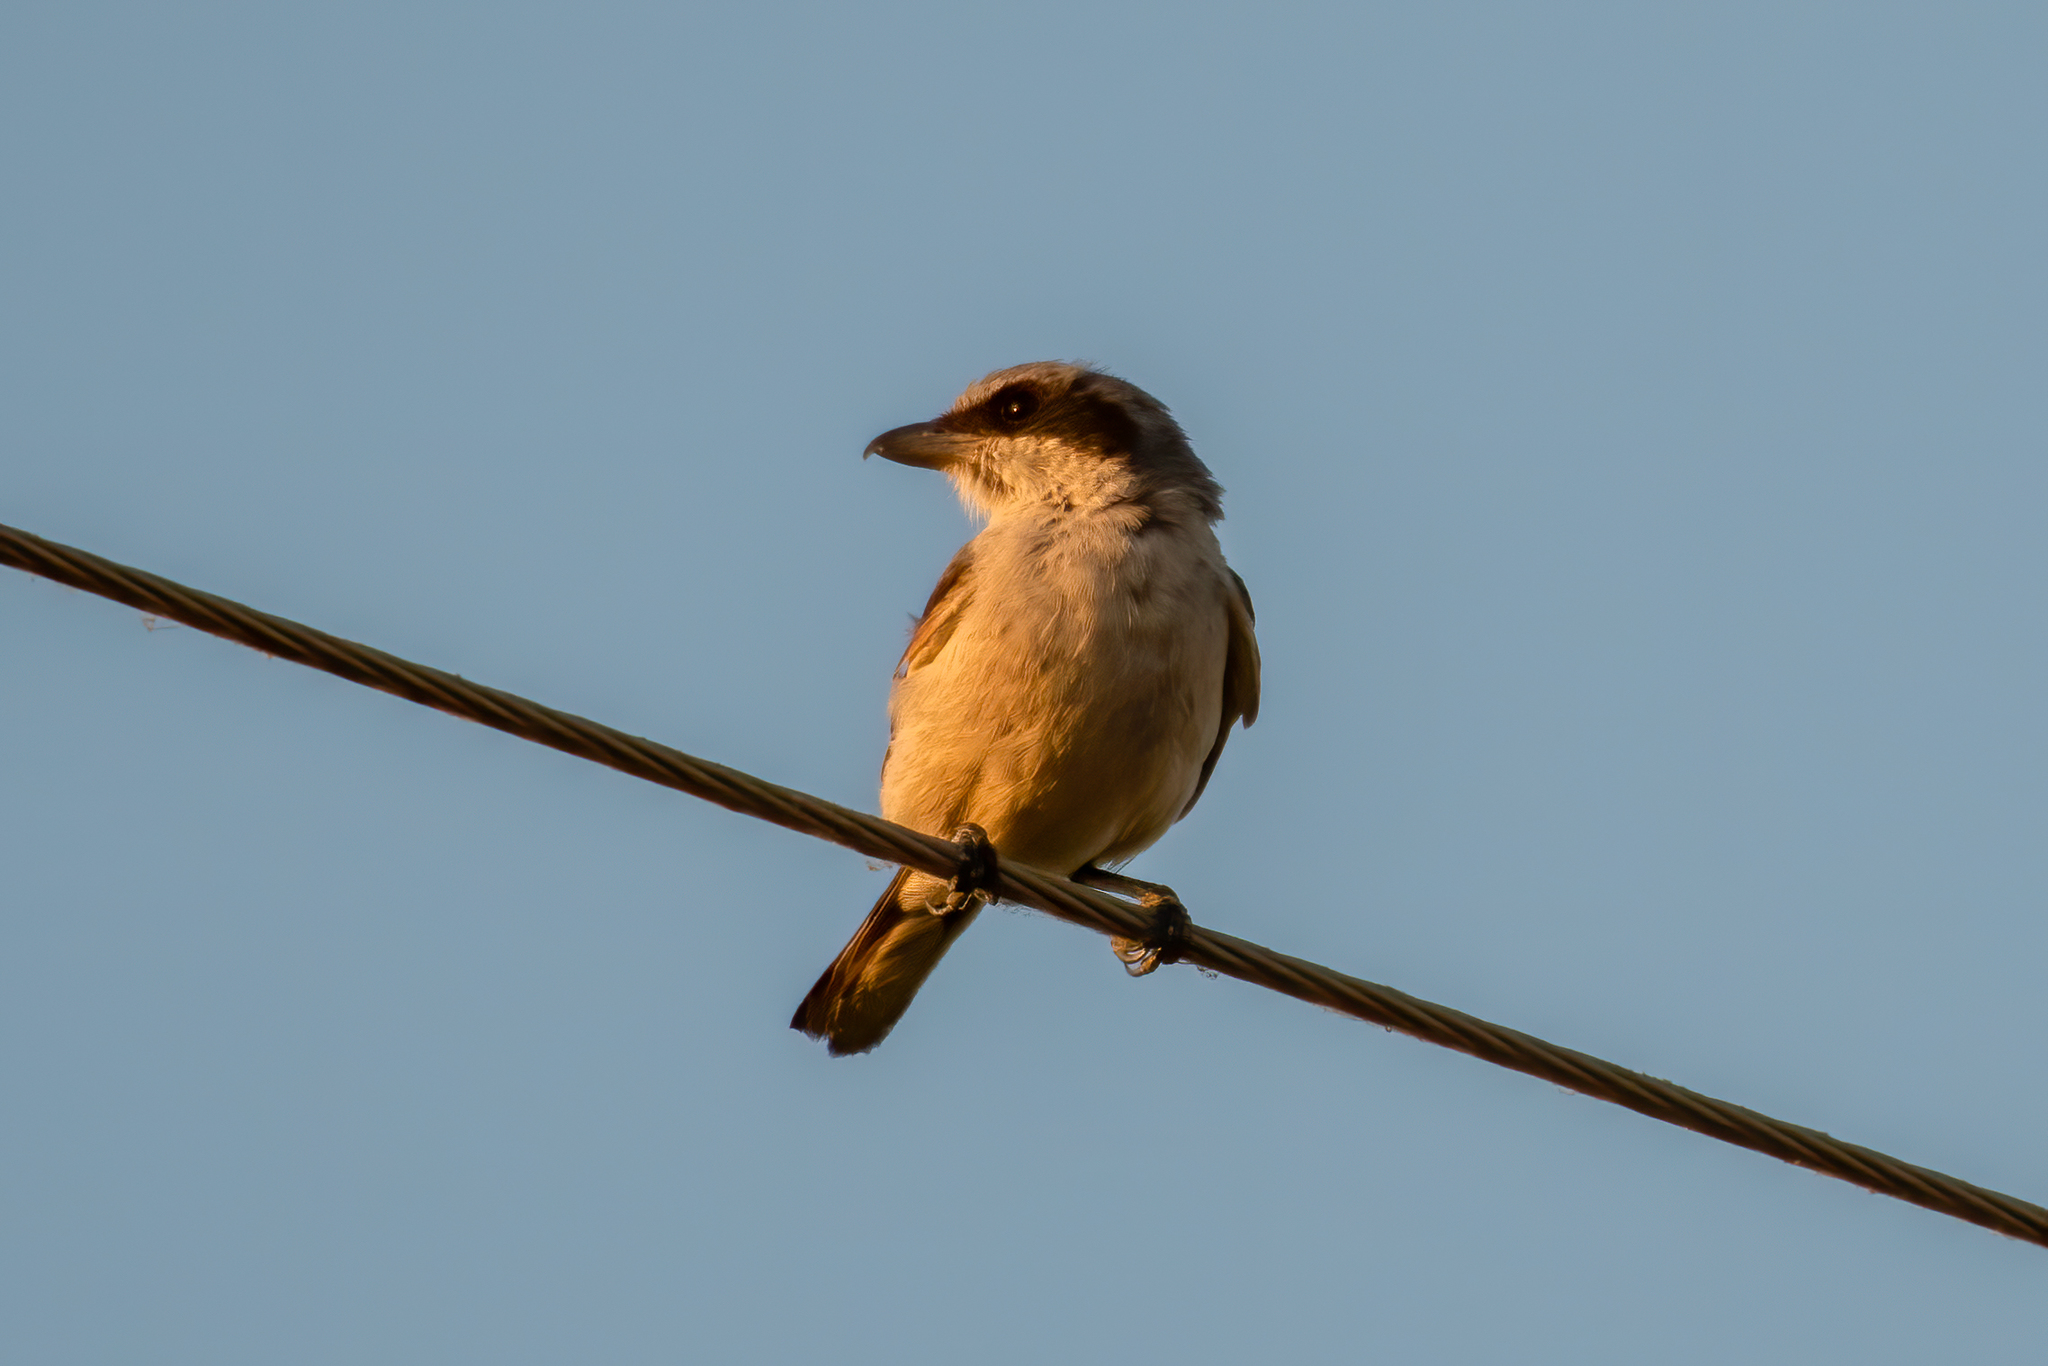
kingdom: Animalia
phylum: Chordata
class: Aves
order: Passeriformes
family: Laniidae
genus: Lanius
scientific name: Lanius ludovicianus
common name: Loggerhead shrike
